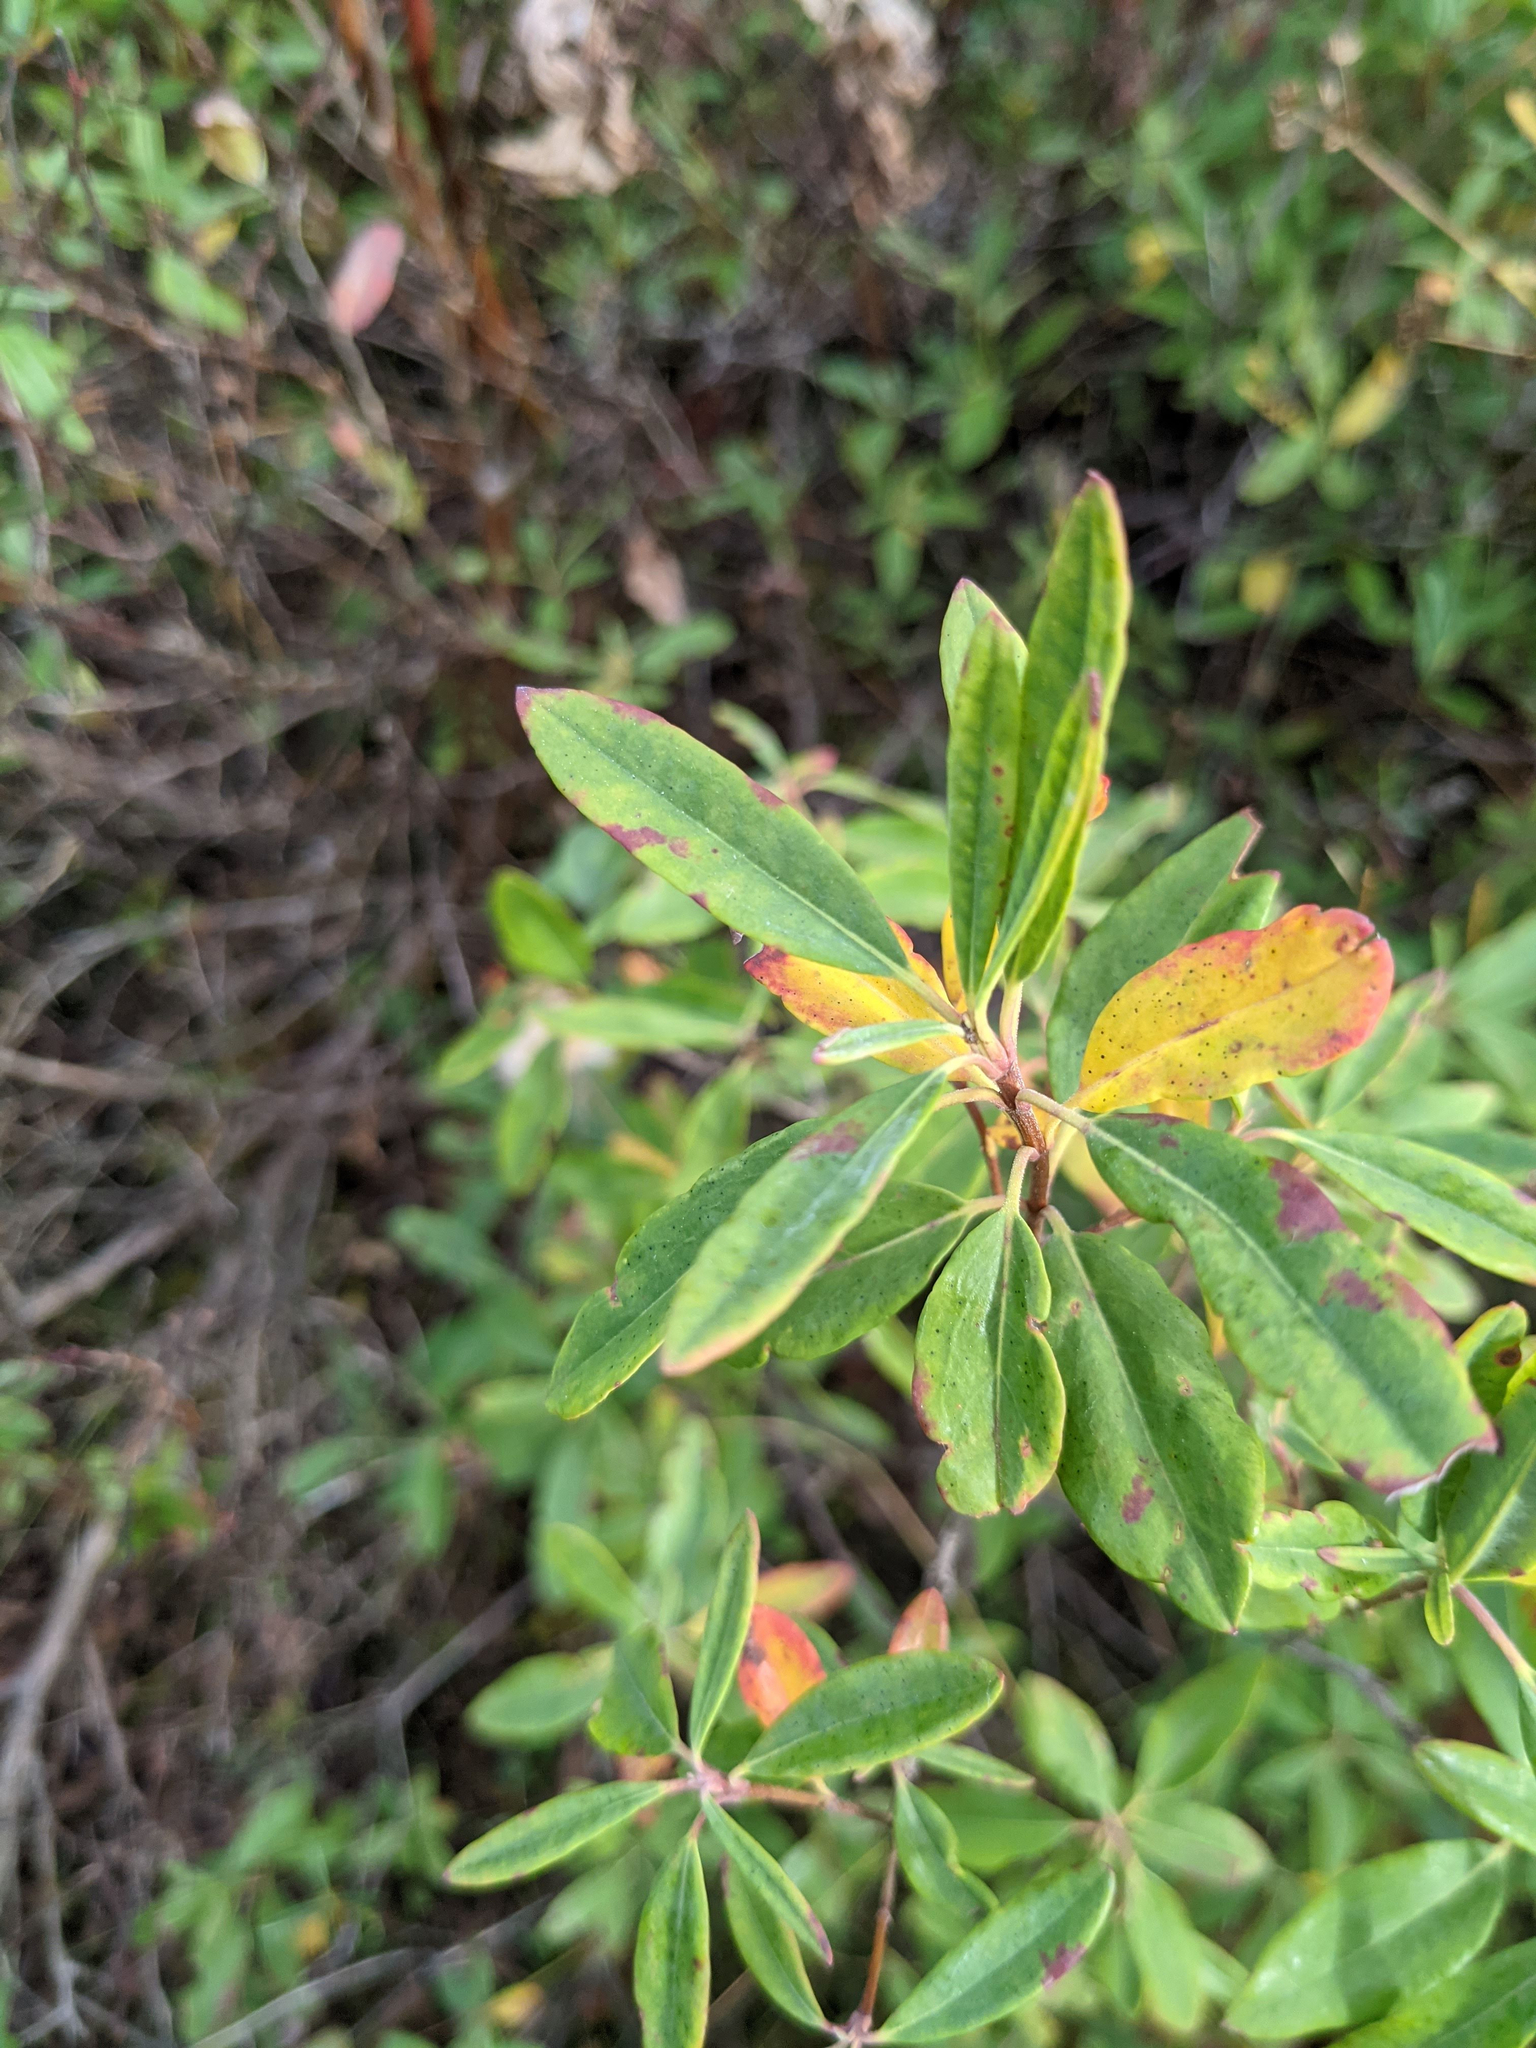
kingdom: Plantae
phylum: Tracheophyta
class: Magnoliopsida
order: Ericales
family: Ericaceae
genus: Kalmia
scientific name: Kalmia angustifolia
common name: Sheep-laurel
